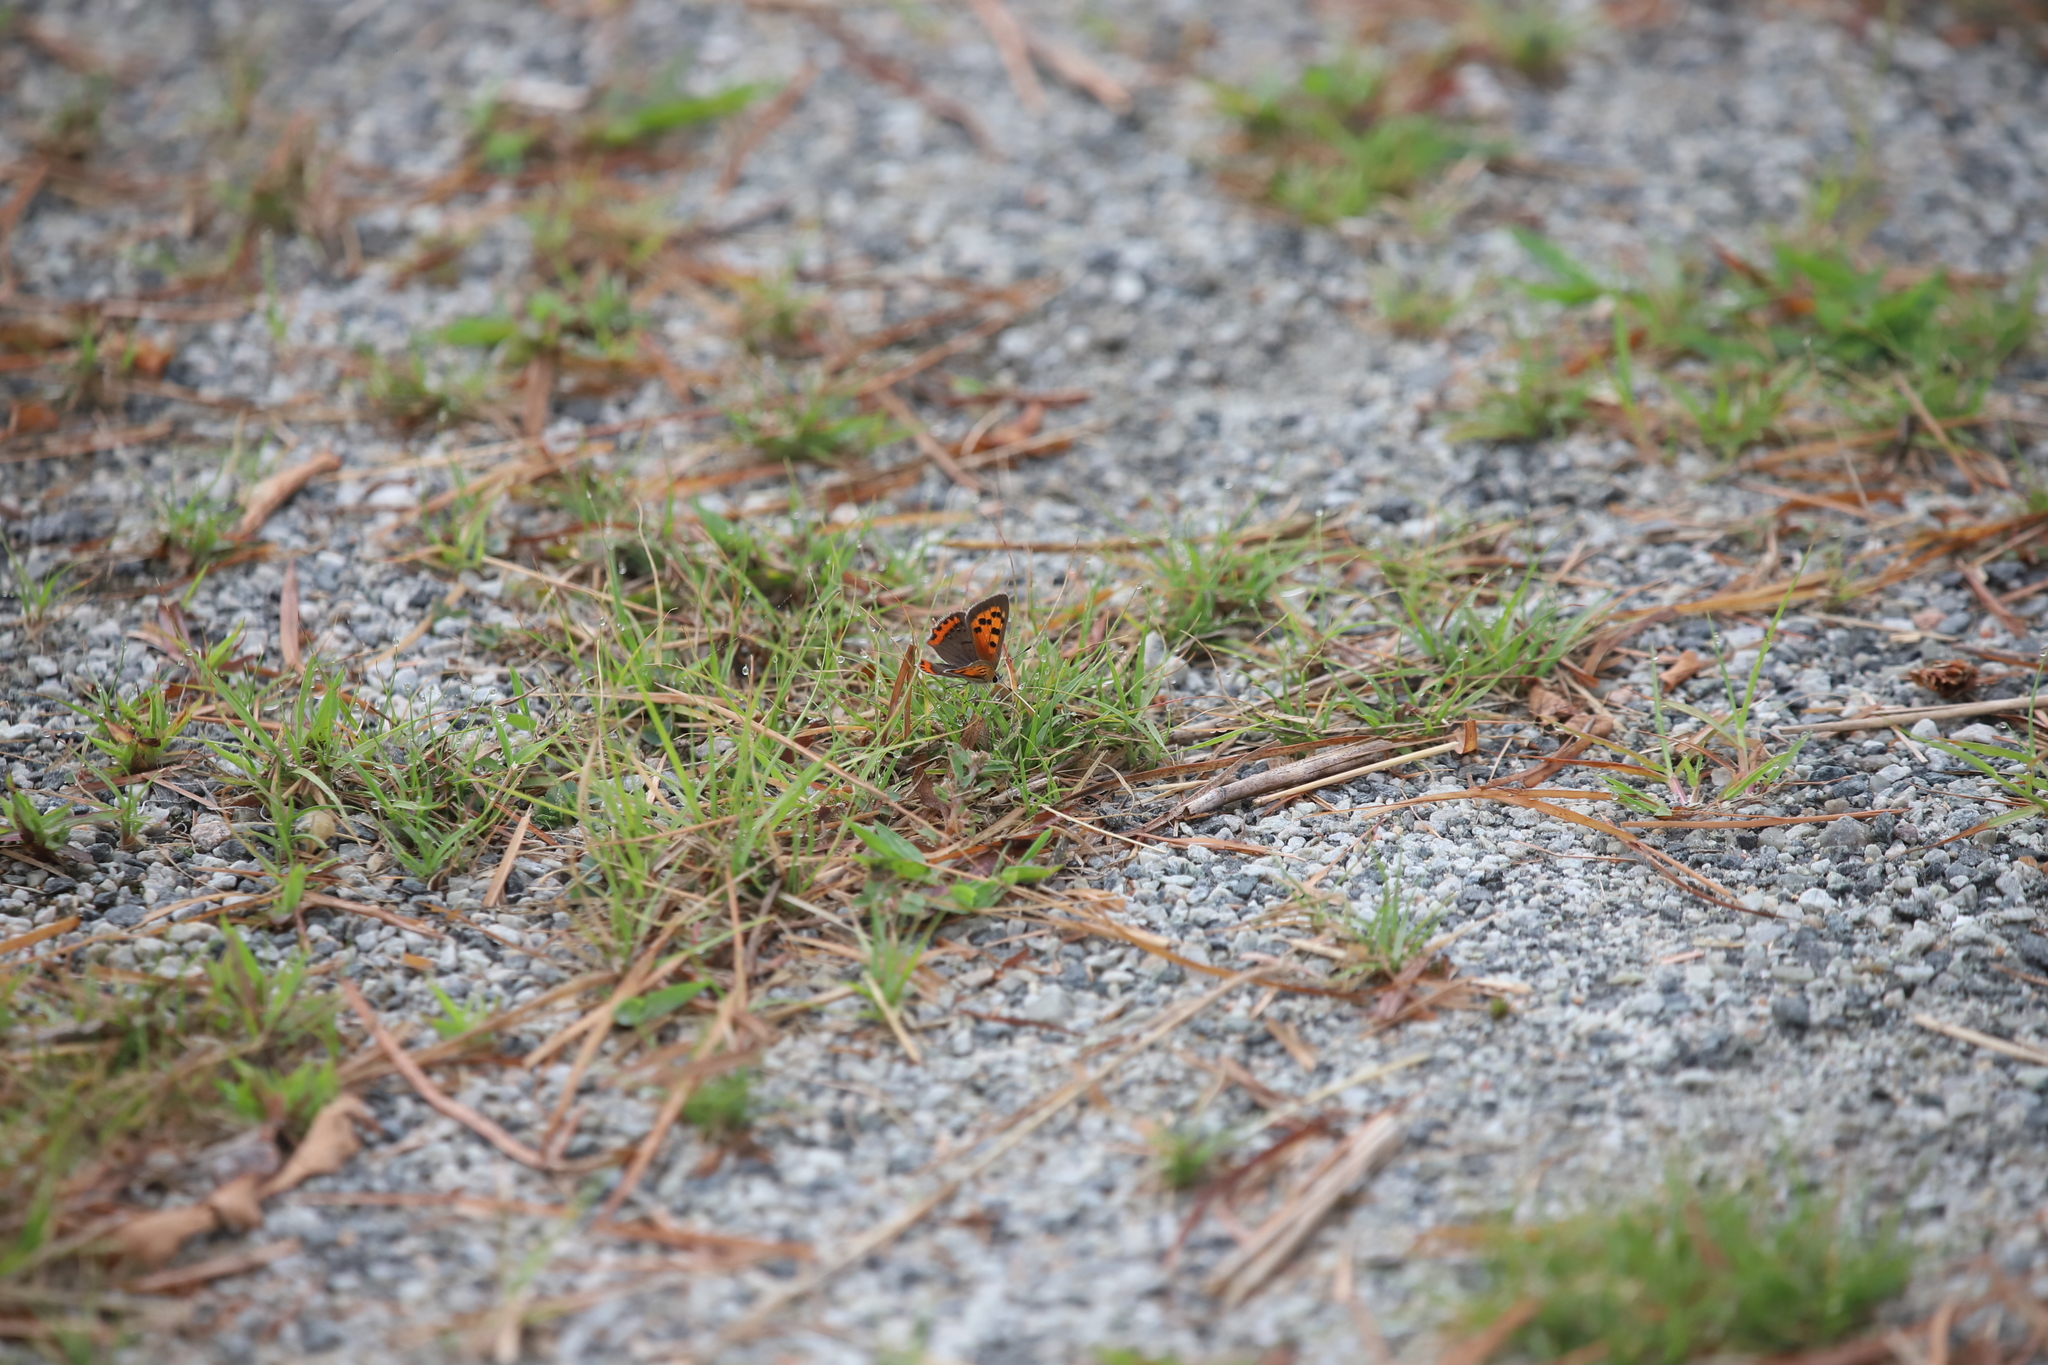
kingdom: Animalia
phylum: Arthropoda
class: Insecta
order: Lepidoptera
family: Lycaenidae
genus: Lycaena
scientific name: Lycaena hypophlaeas
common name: American copper
